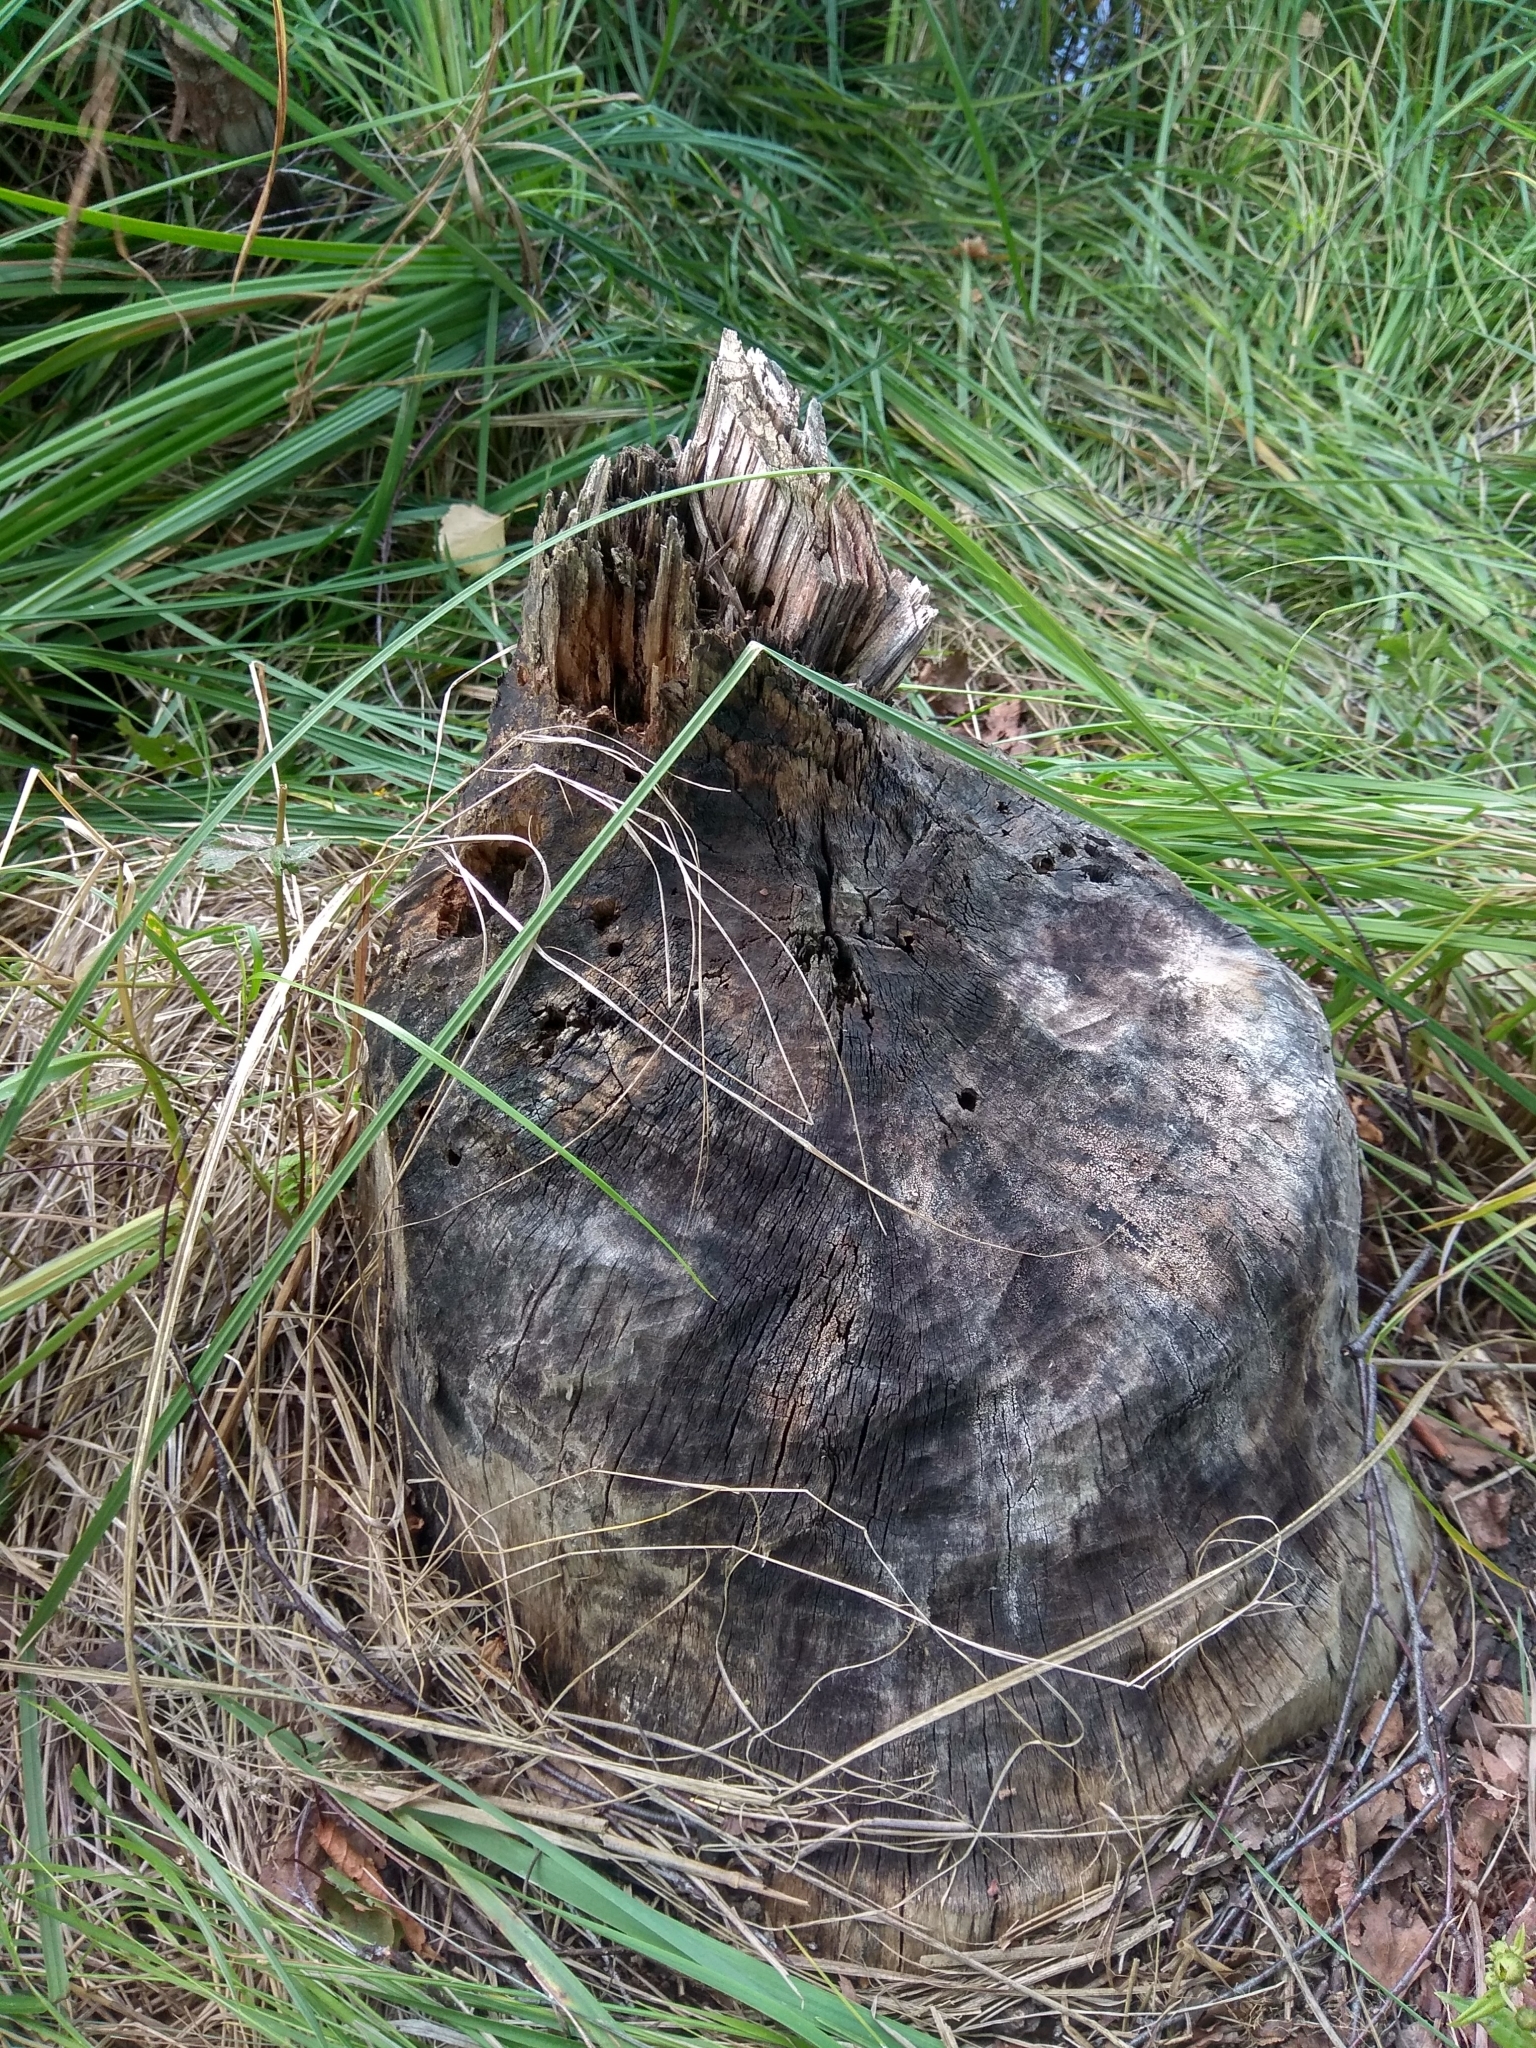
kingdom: Animalia
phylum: Chordata
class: Mammalia
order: Rodentia
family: Castoridae
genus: Castor
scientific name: Castor fiber
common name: Eurasian beaver
